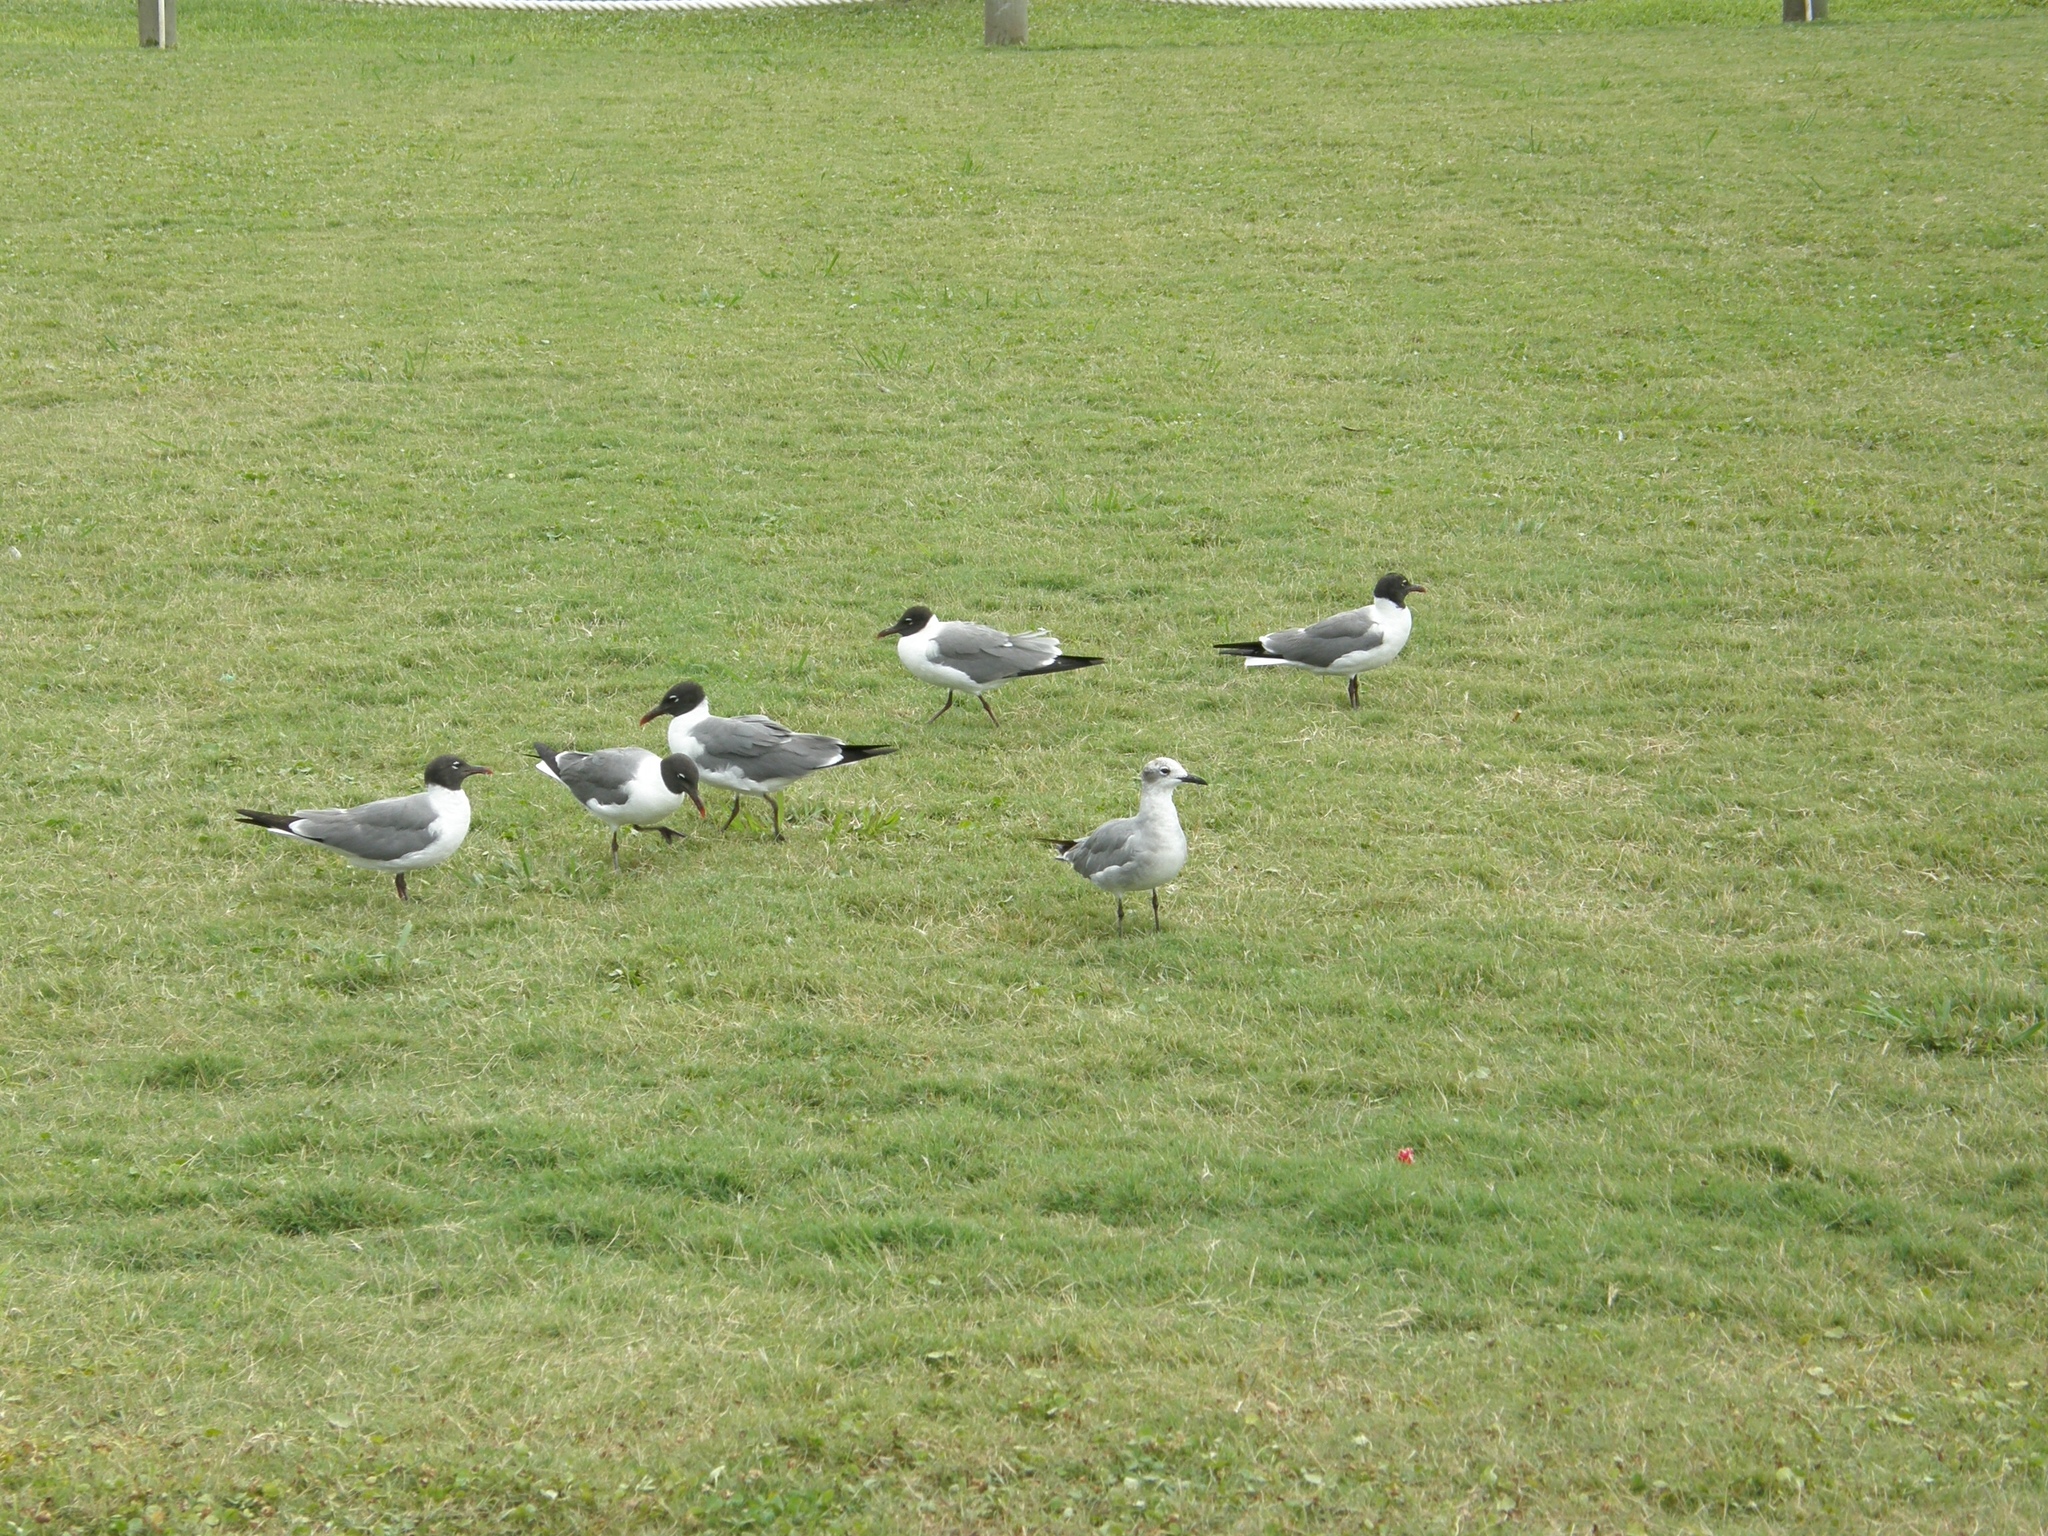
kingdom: Animalia
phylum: Chordata
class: Aves
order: Charadriiformes
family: Laridae
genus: Leucophaeus
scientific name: Leucophaeus atricilla
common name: Laughing gull
